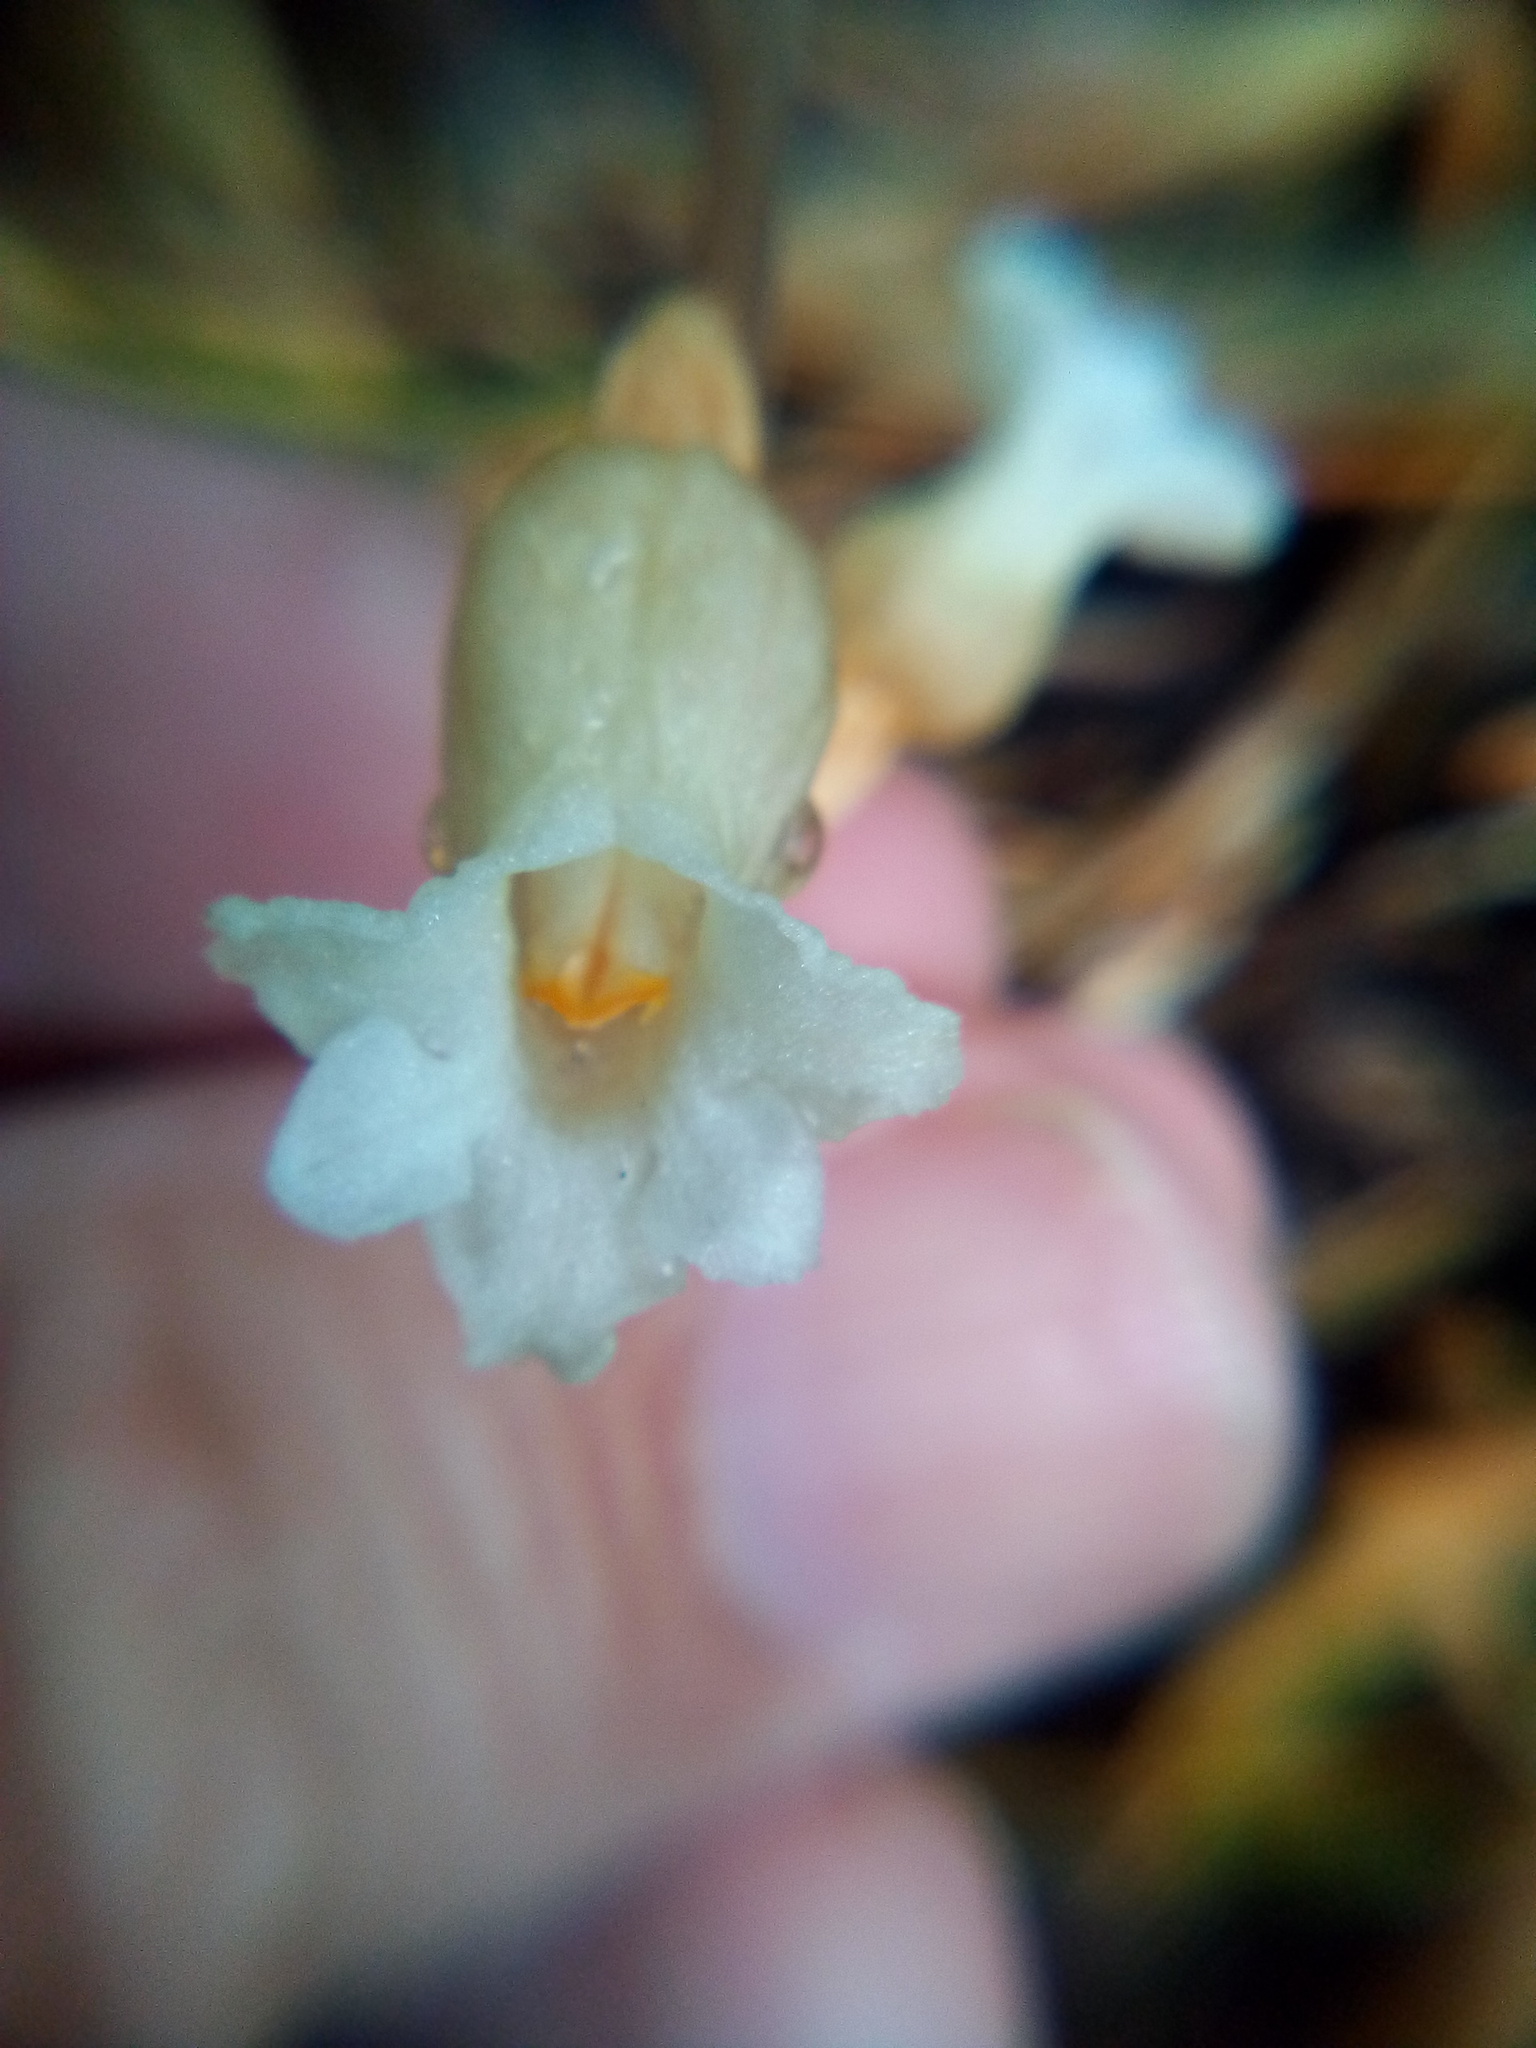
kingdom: Plantae
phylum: Tracheophyta
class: Liliopsida
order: Asparagales
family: Orchidaceae
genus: Gastrodia
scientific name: Gastrodia sesamoides
